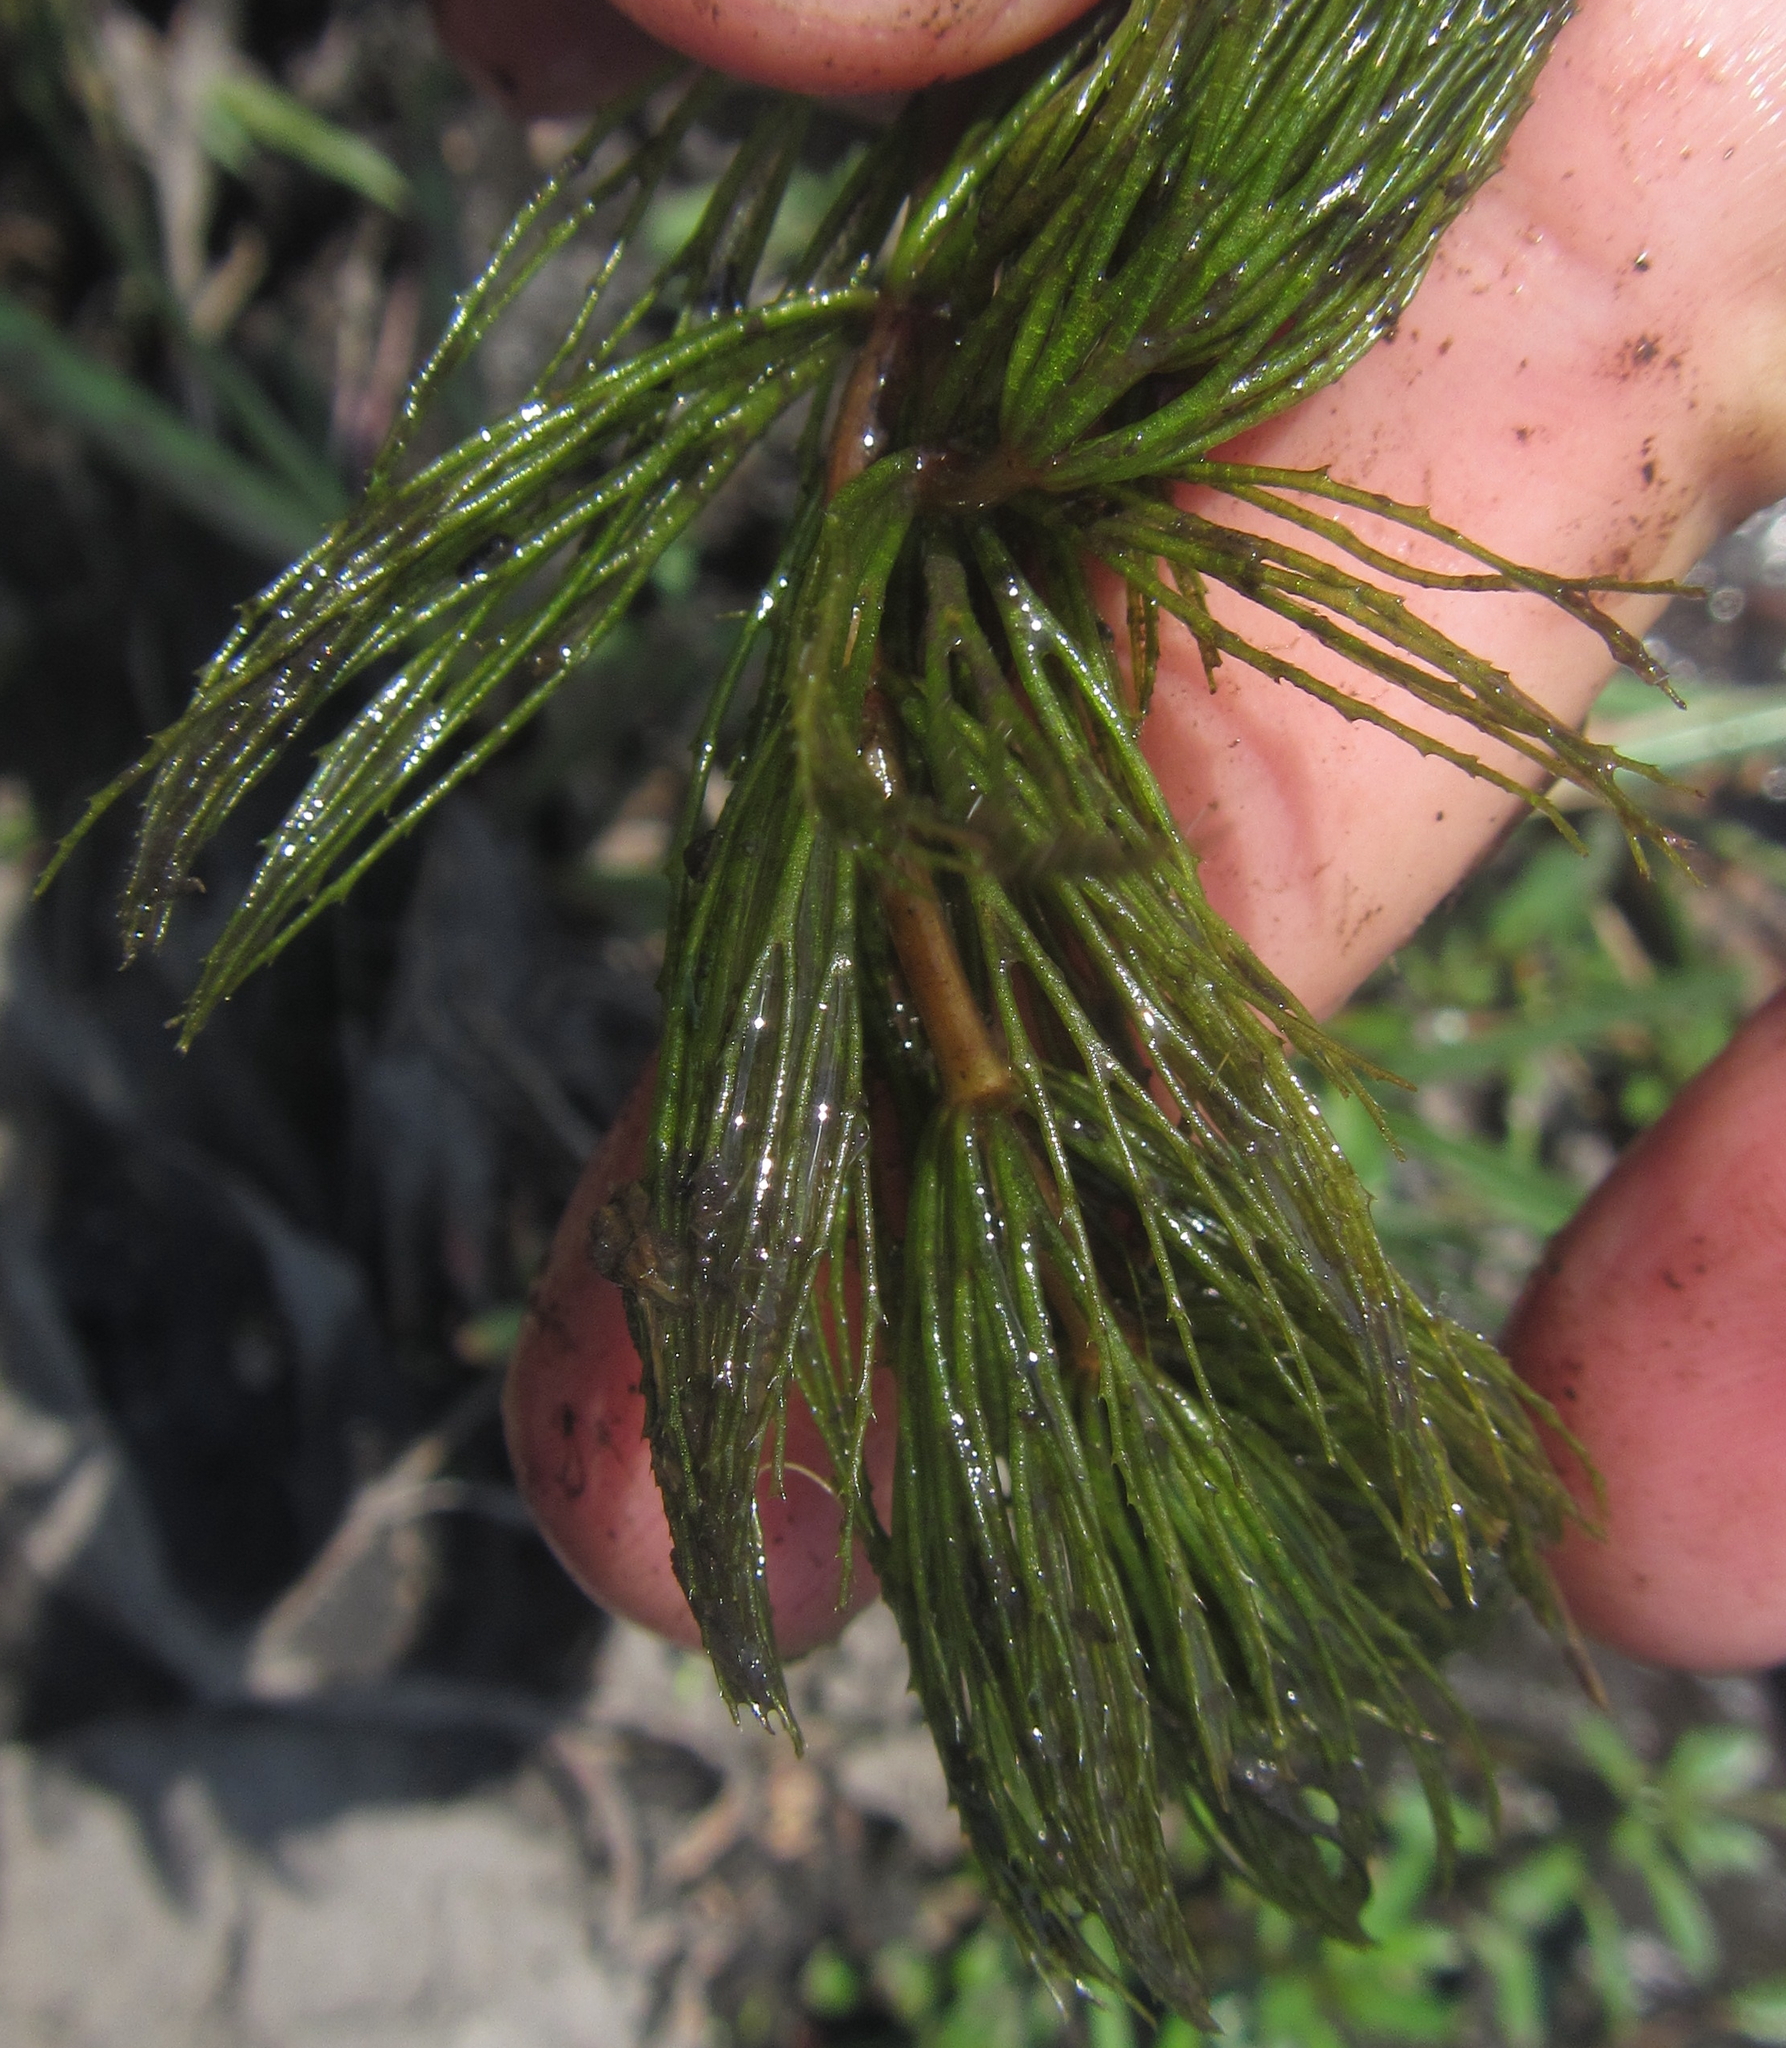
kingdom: Plantae
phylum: Tracheophyta
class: Magnoliopsida
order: Ceratophyllales
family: Ceratophyllaceae
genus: Ceratophyllum
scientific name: Ceratophyllum demersum
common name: Rigid hornwort
